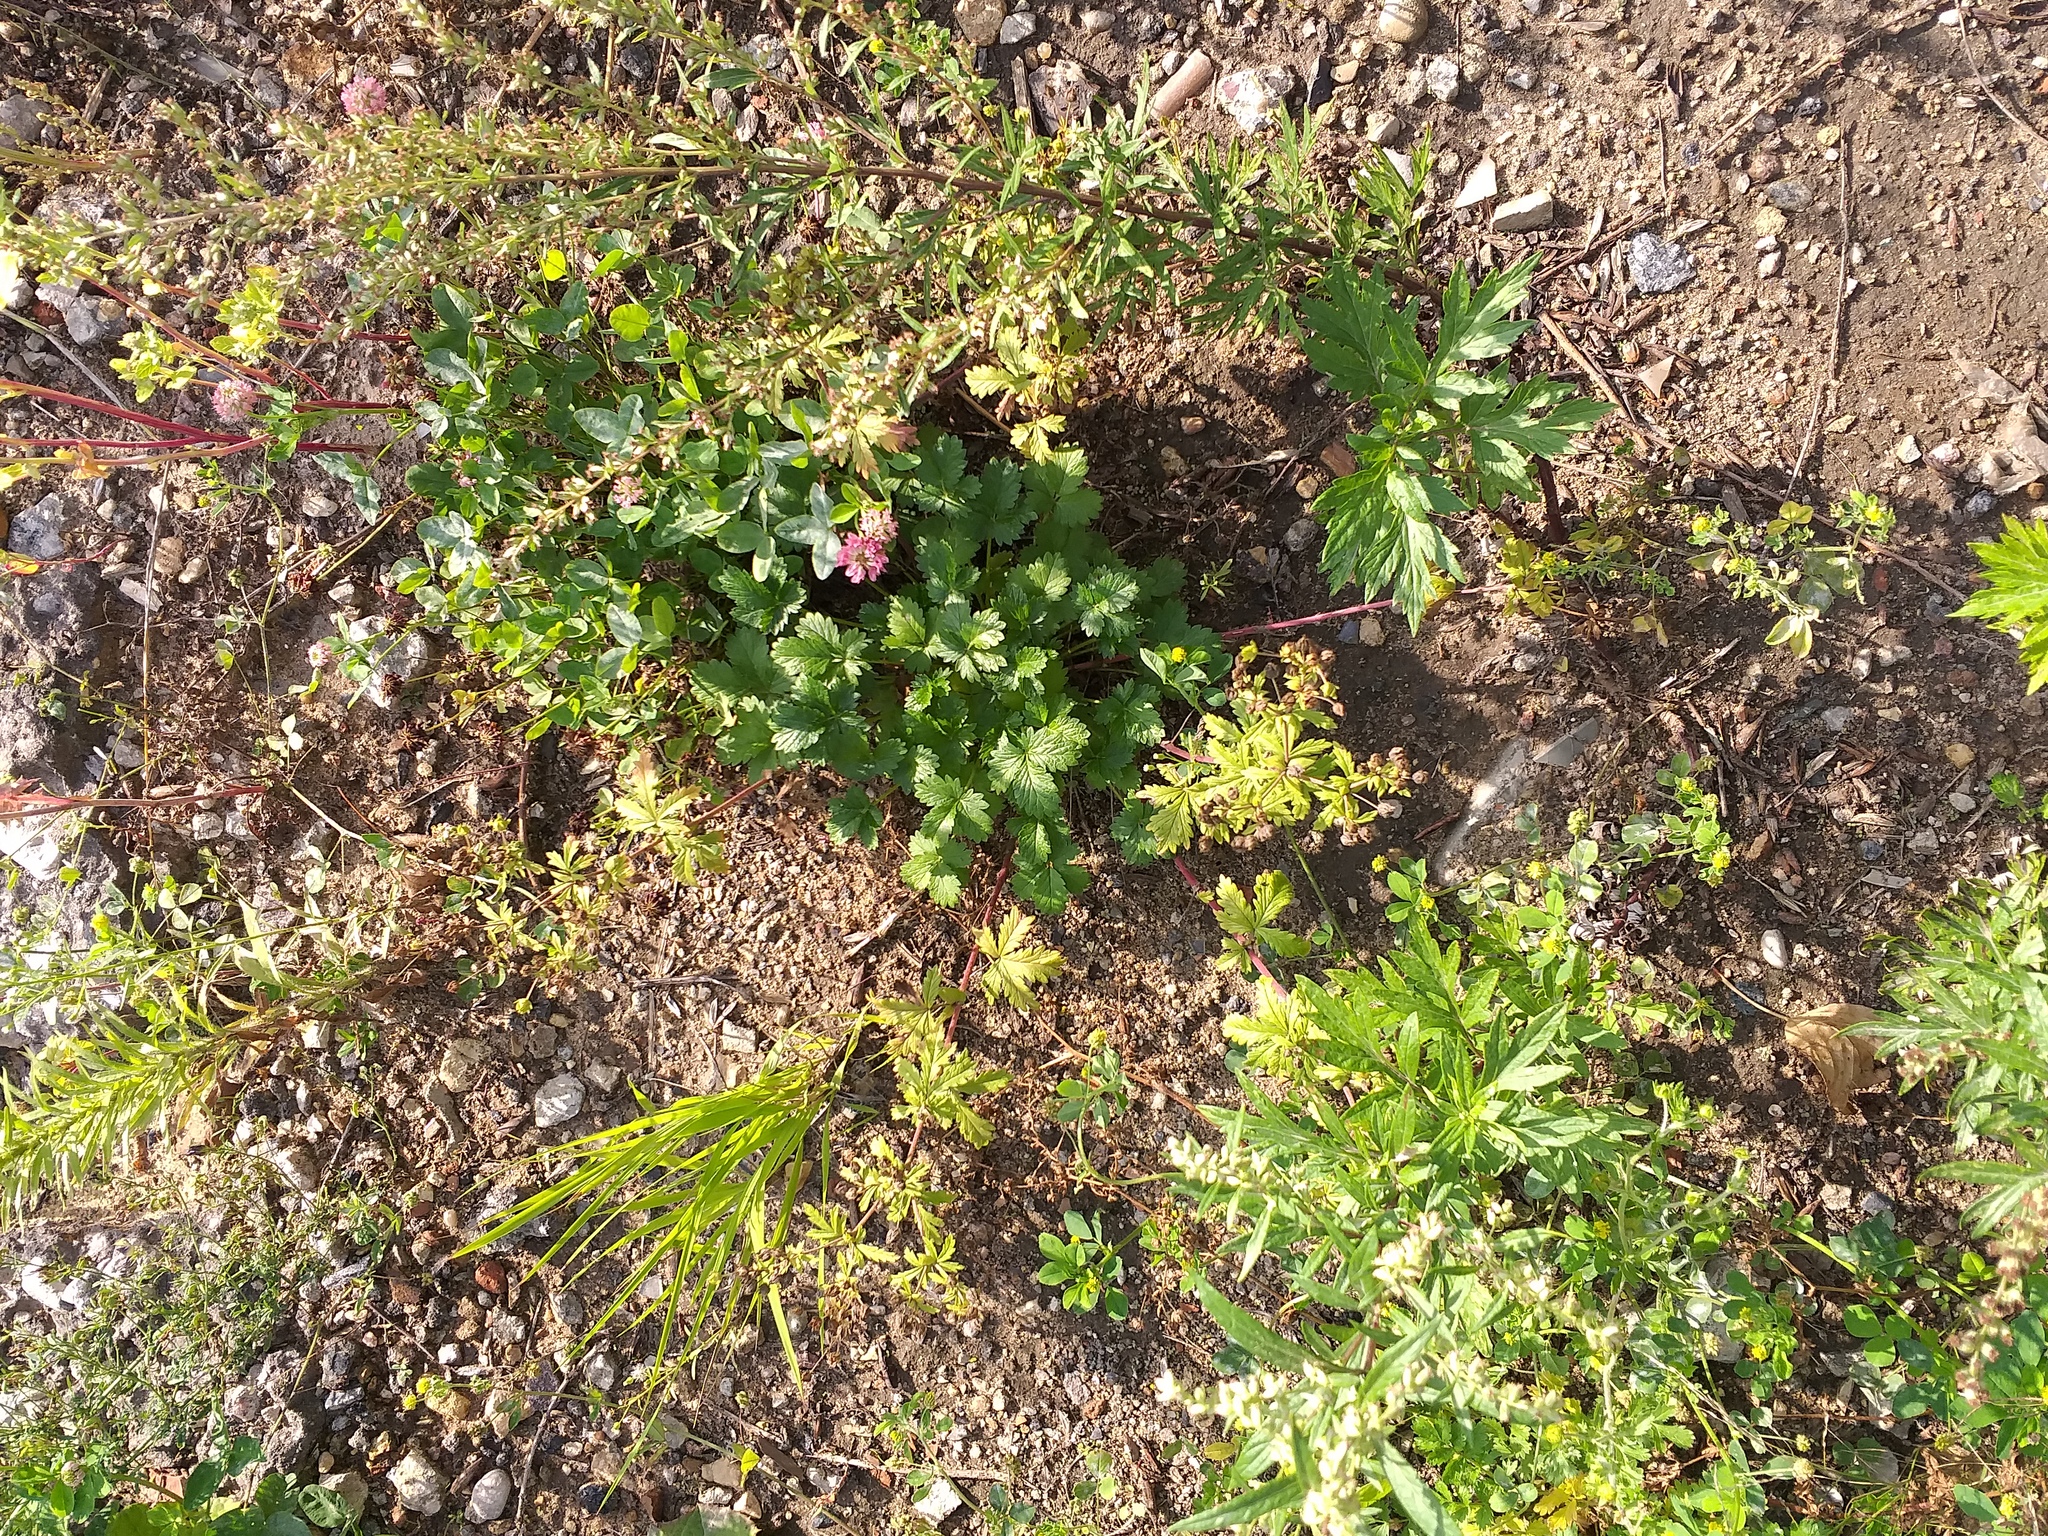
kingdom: Plantae
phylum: Tracheophyta
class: Magnoliopsida
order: Rosales
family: Rosaceae
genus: Potentilla
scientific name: Potentilla intermedia
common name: Downy cinquefoil
